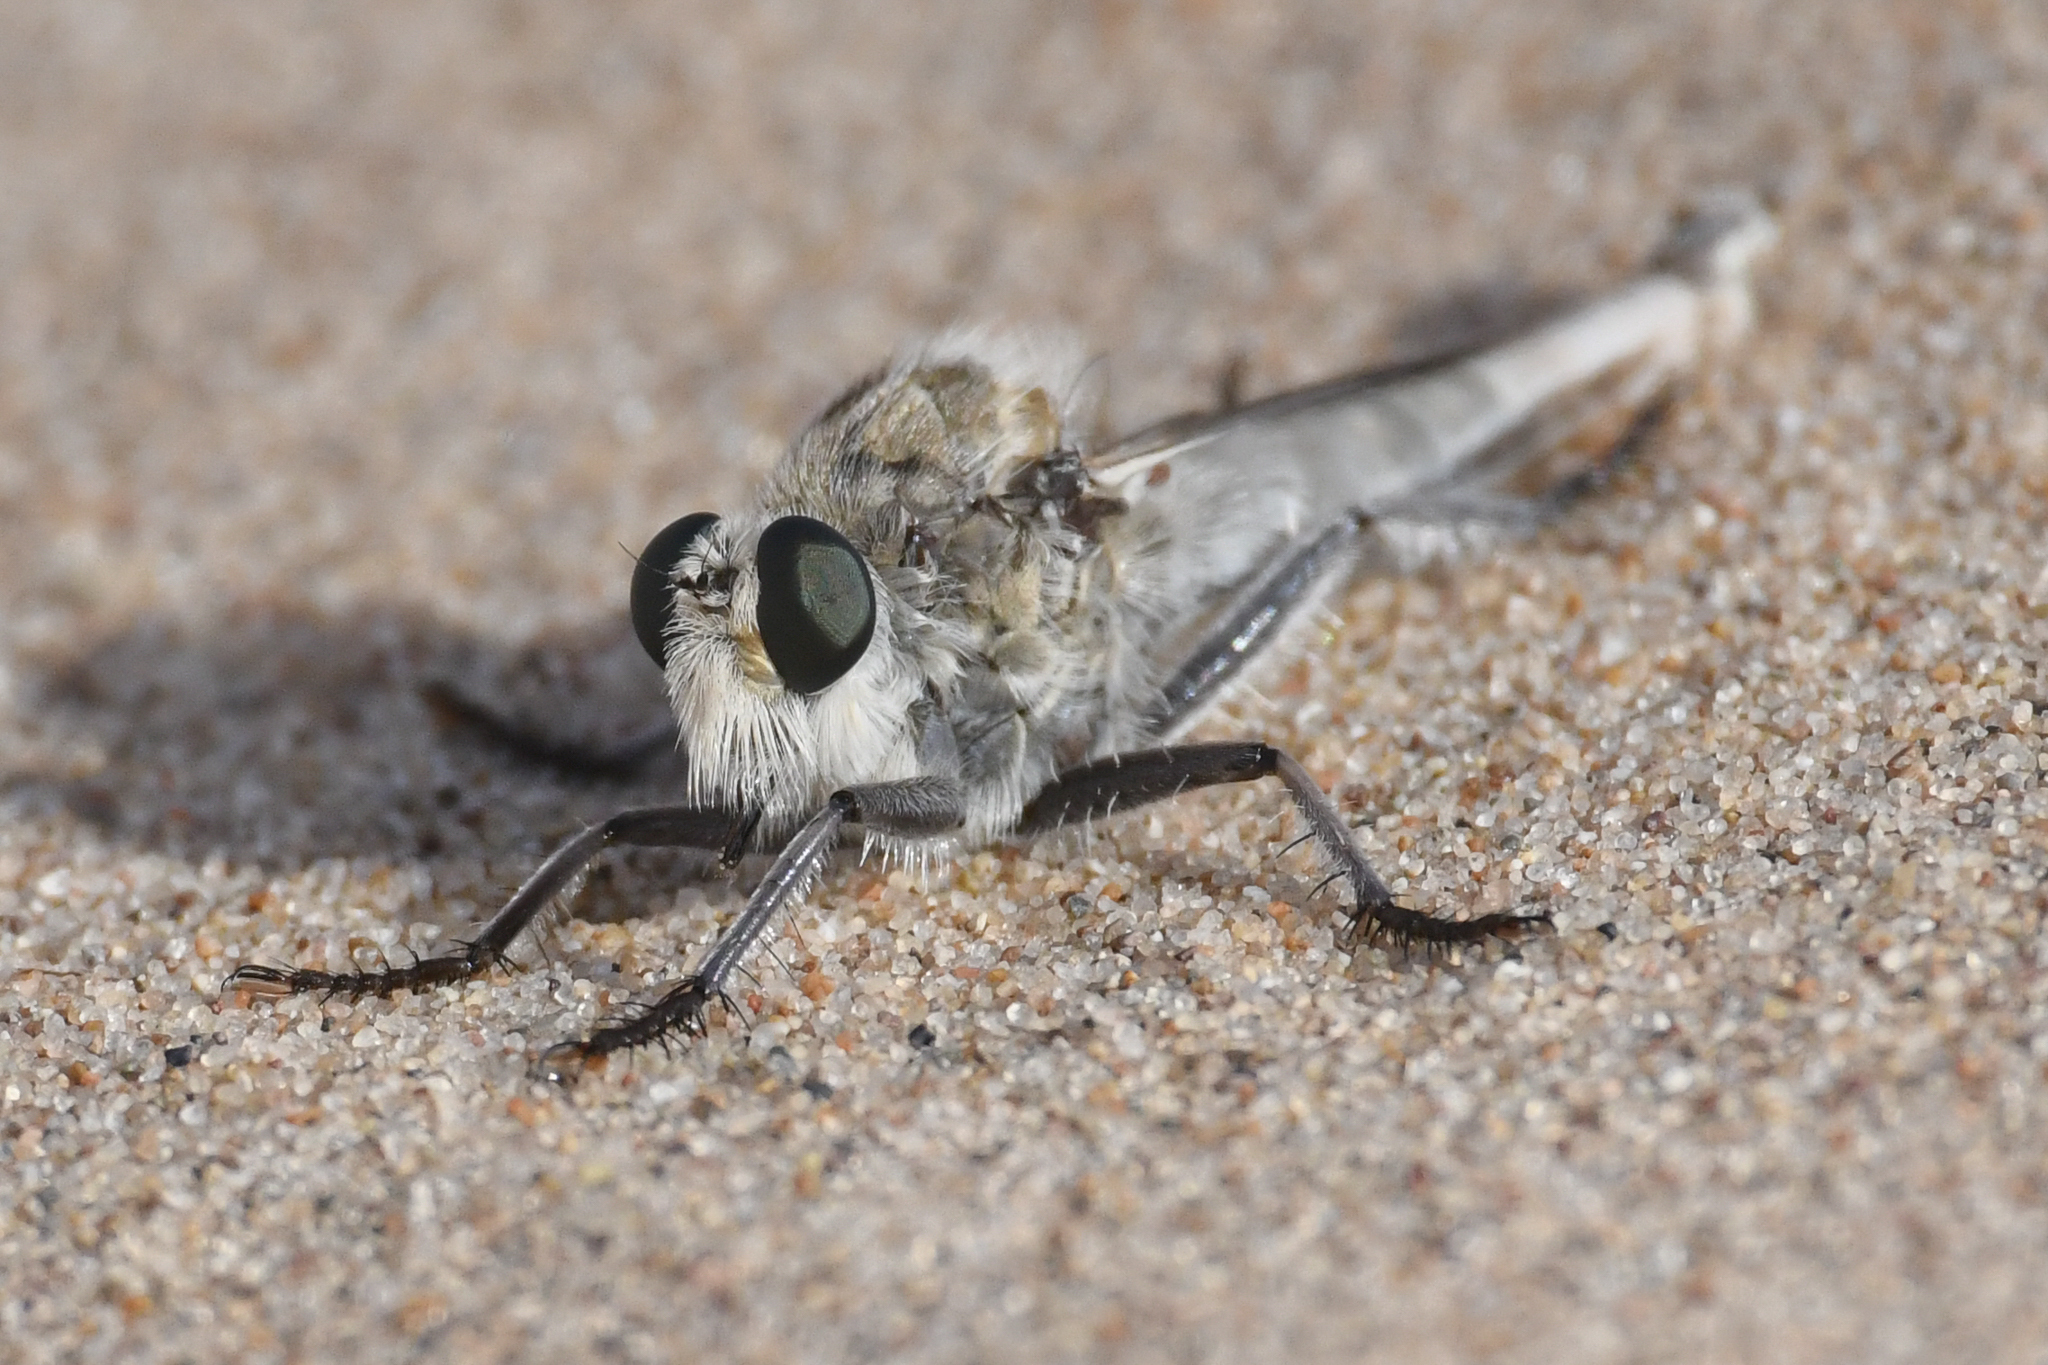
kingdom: Animalia
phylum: Arthropoda
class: Insecta
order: Diptera
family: Asilidae
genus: Proctacanthus
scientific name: Proctacanthus coquillettii
